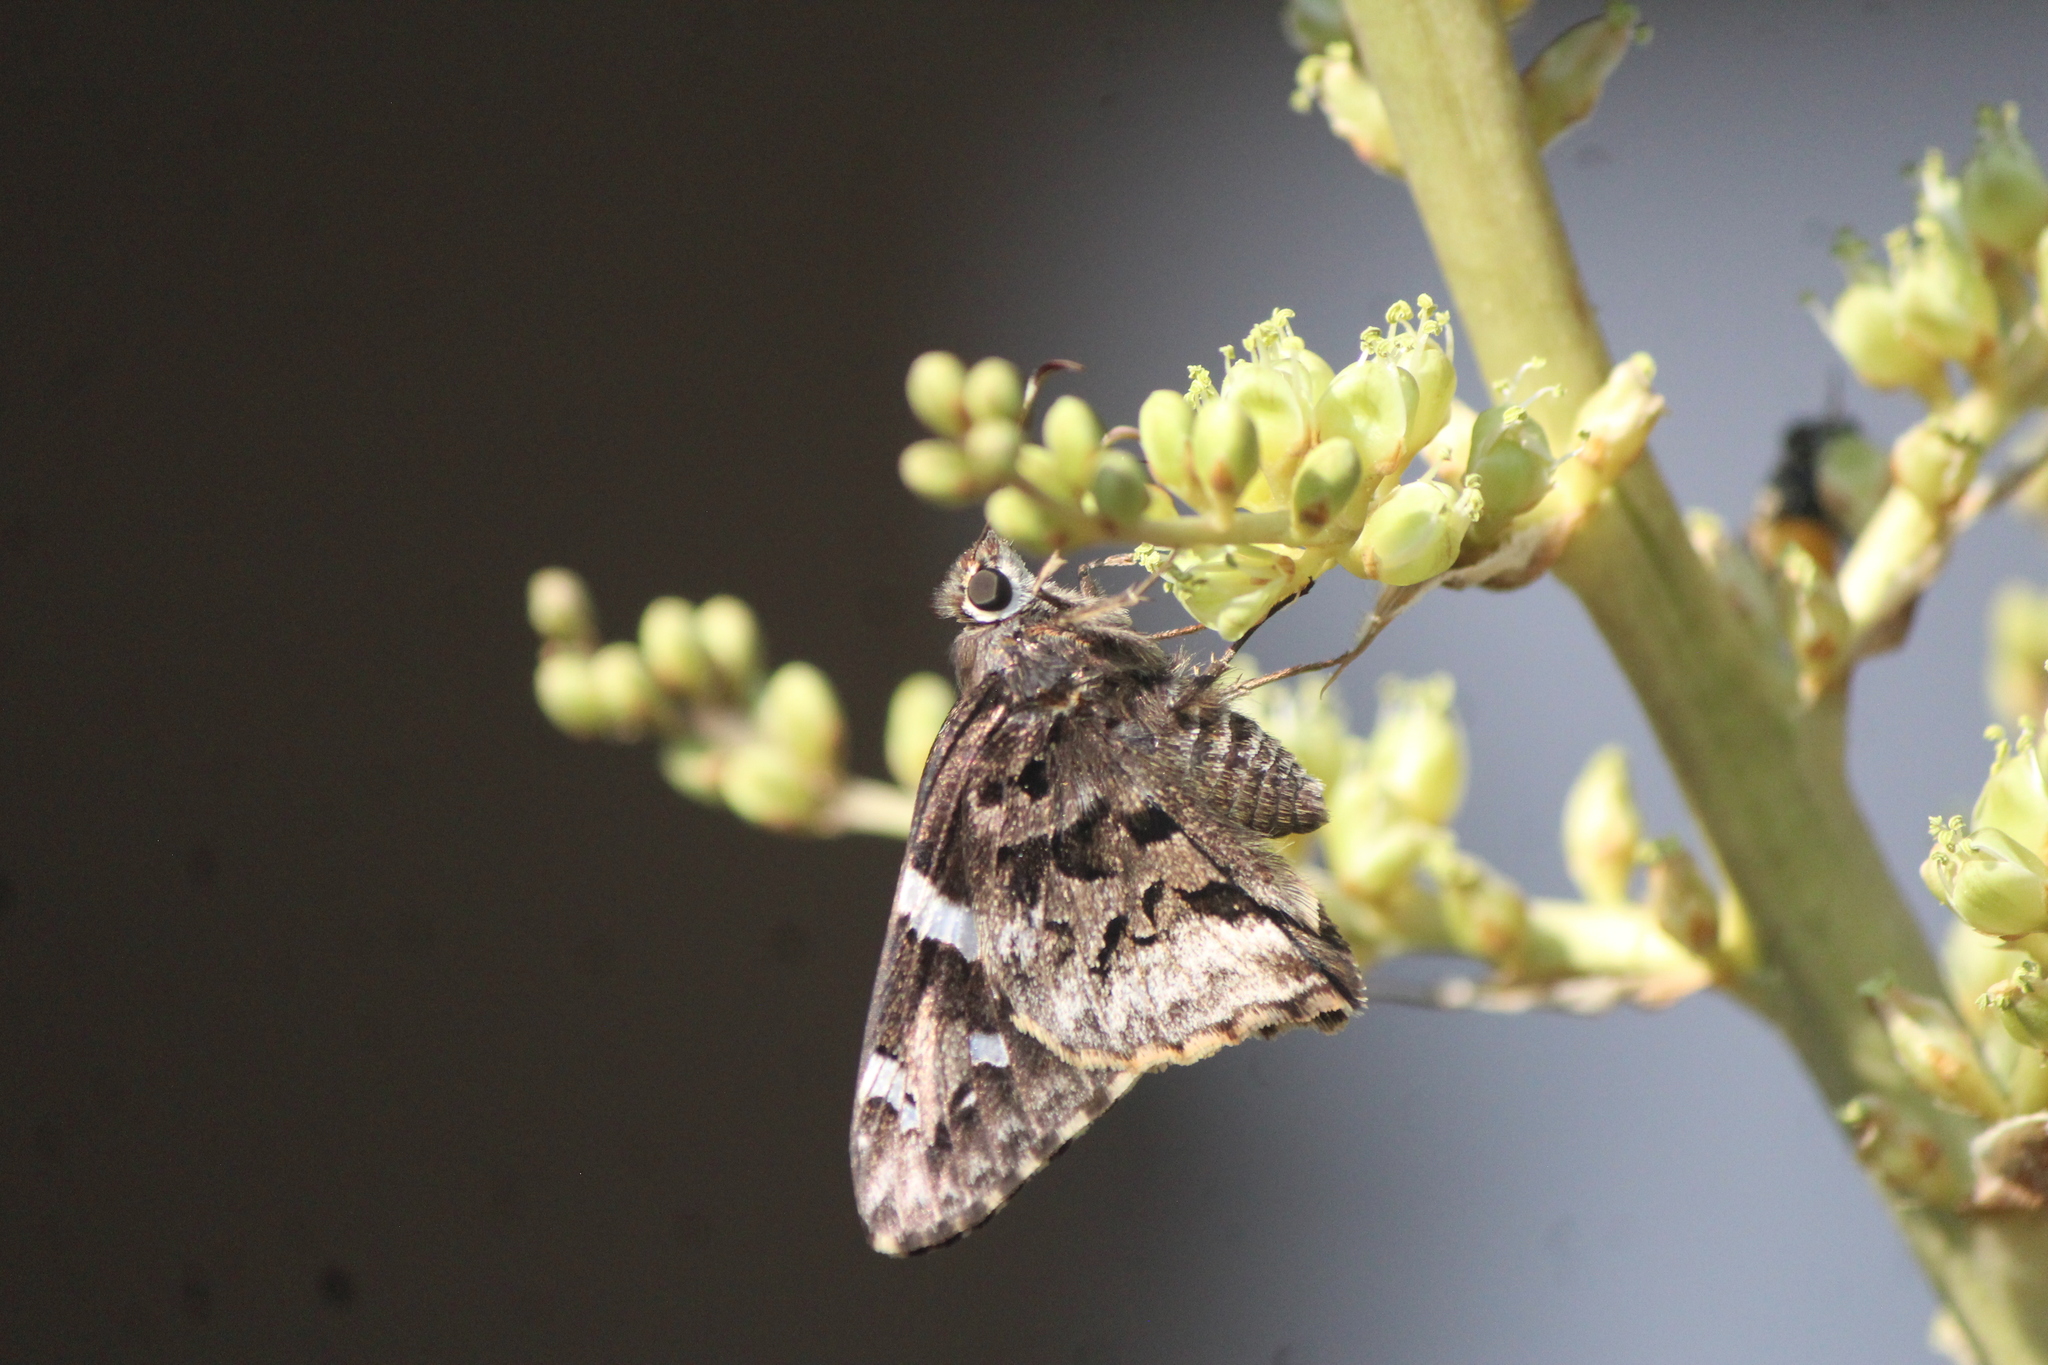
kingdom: Animalia
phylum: Arthropoda
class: Insecta
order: Lepidoptera
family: Hesperiidae
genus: Codatractus
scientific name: Codatractus arizonensis
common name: Arizona skipper
